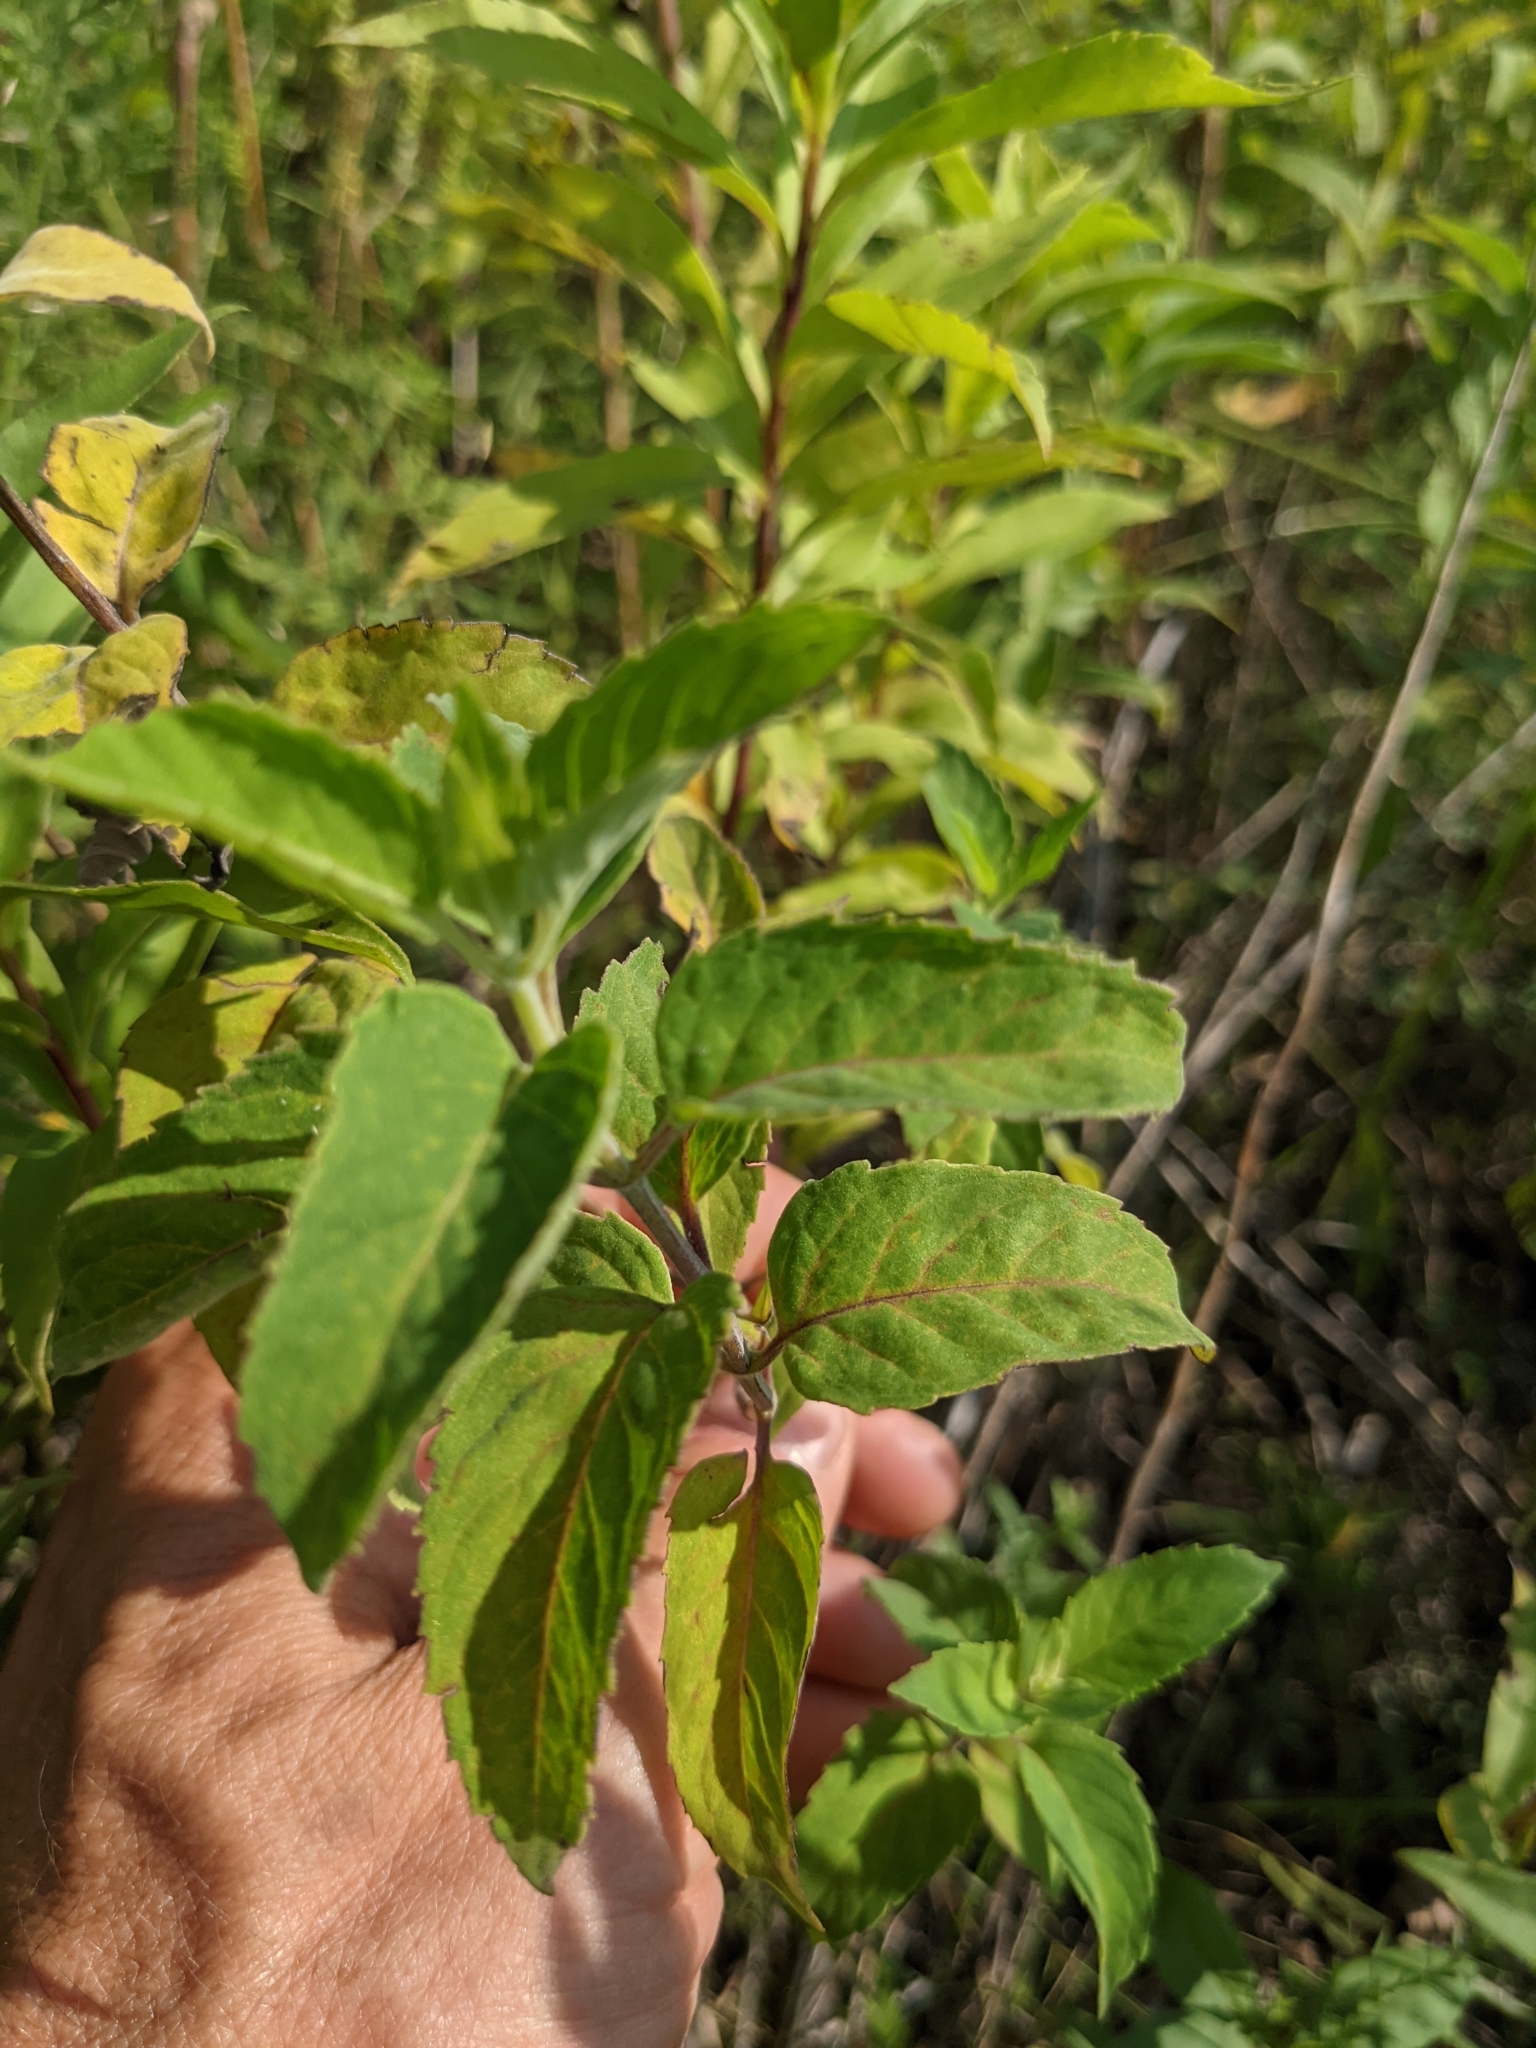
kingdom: Plantae
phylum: Tracheophyta
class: Magnoliopsida
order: Lamiales
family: Lamiaceae
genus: Monarda
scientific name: Monarda fistulosa
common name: Purple beebalm
